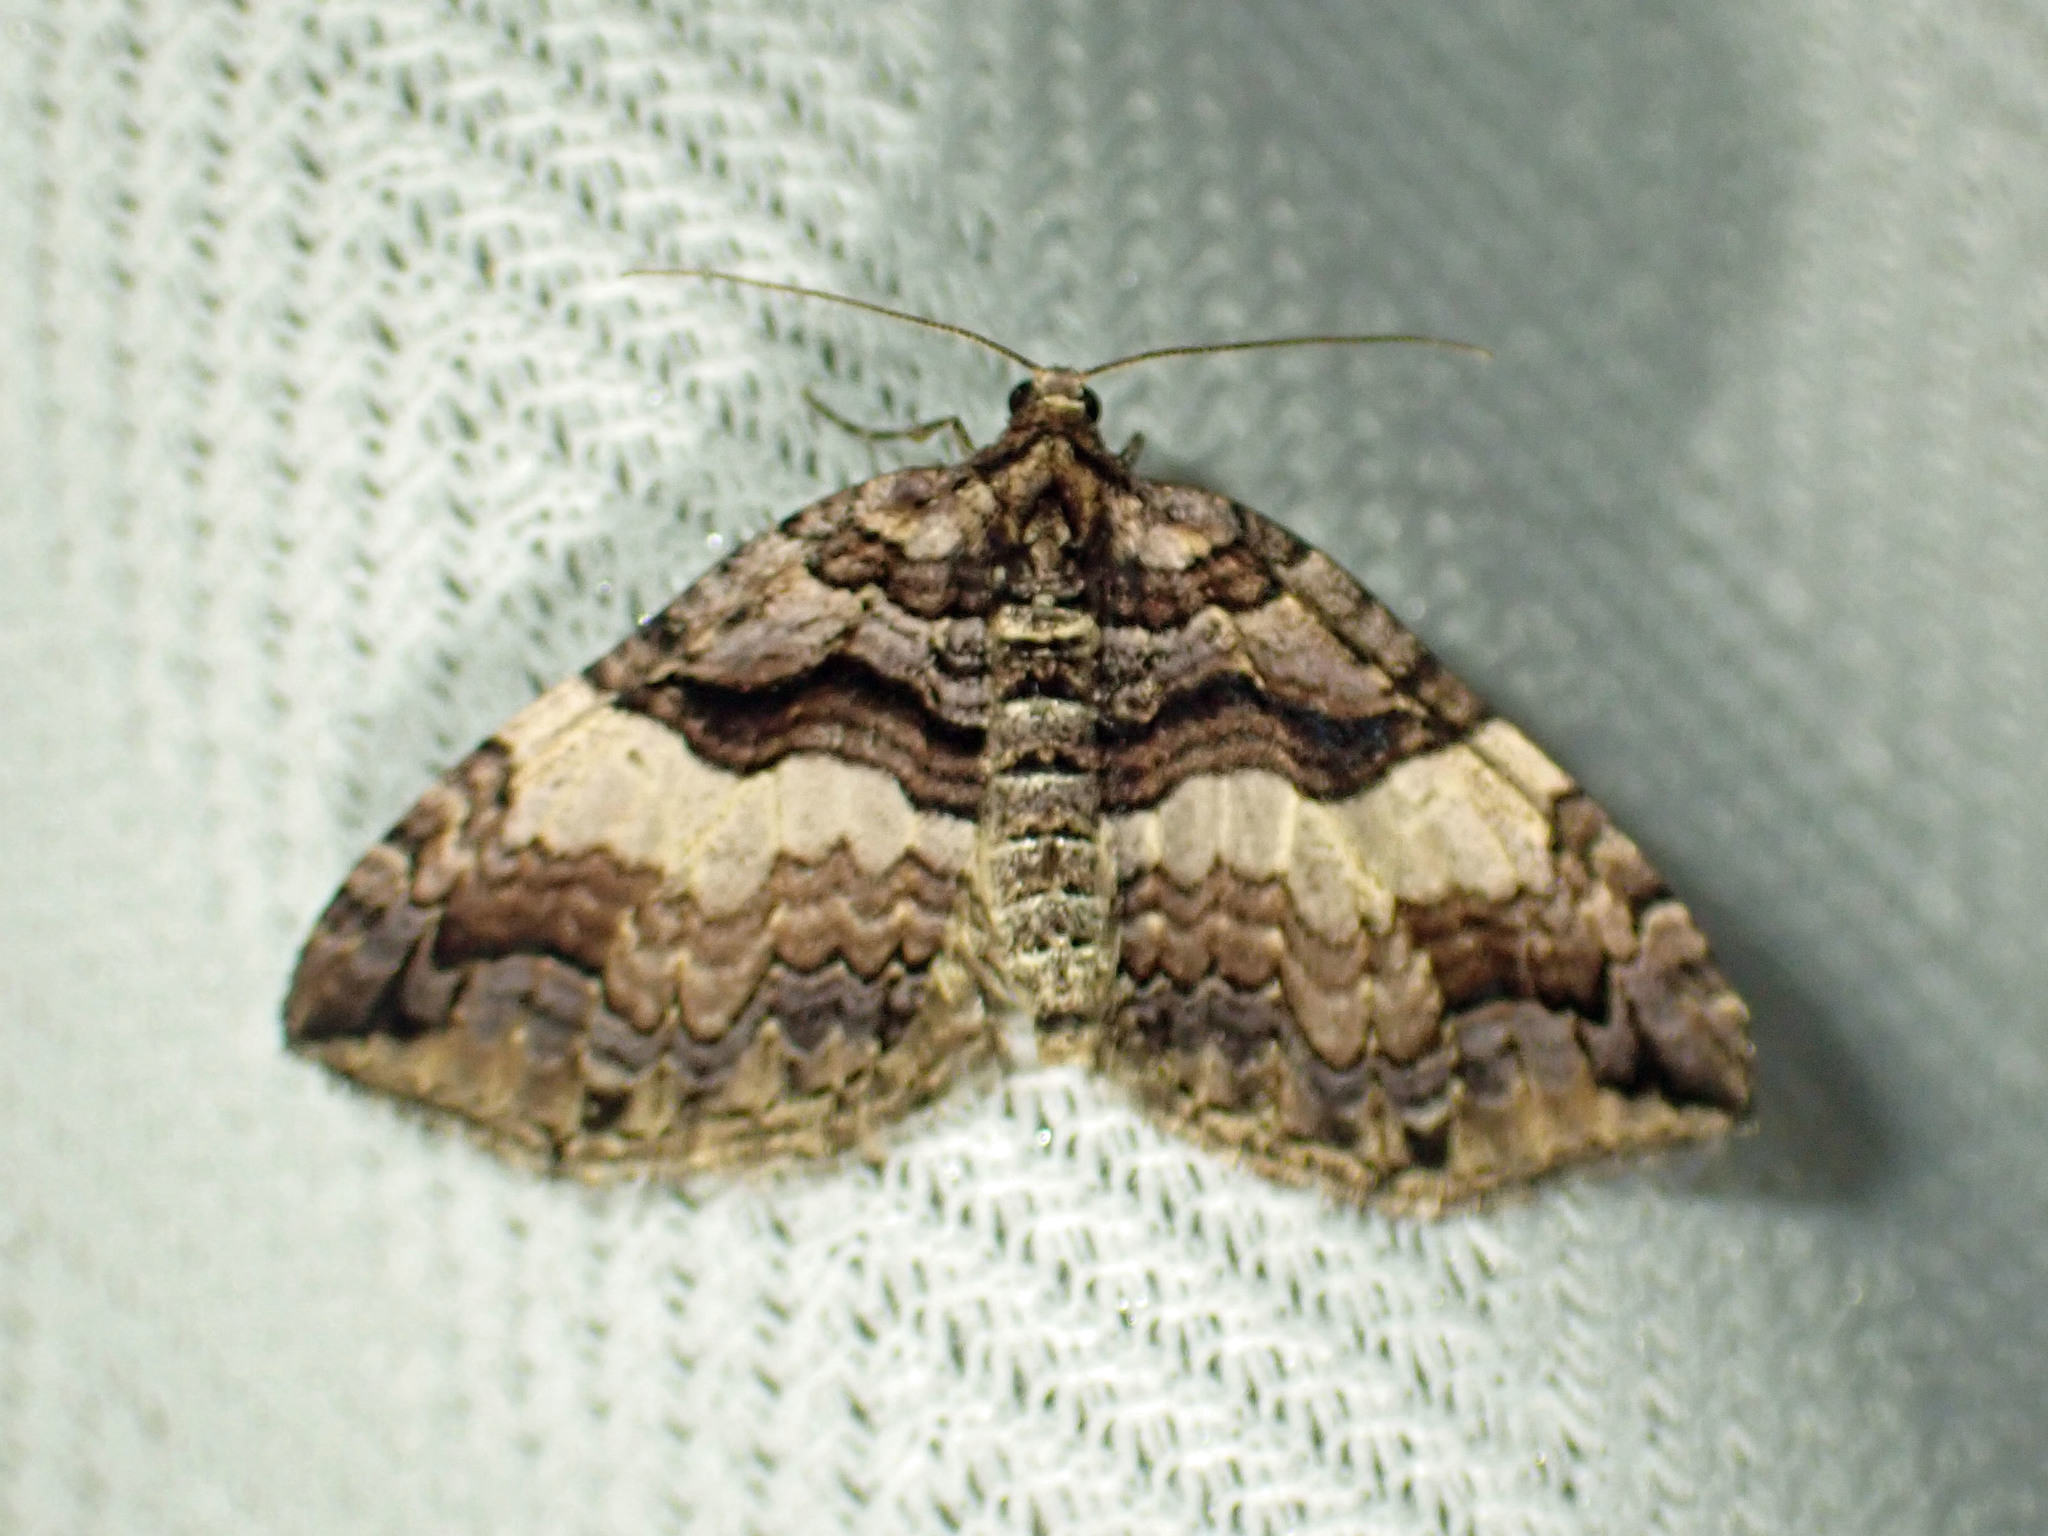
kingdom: Animalia
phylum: Arthropoda
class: Insecta
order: Lepidoptera
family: Geometridae
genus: Anticlea
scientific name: Anticlea vasiliata
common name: Variable carpet
